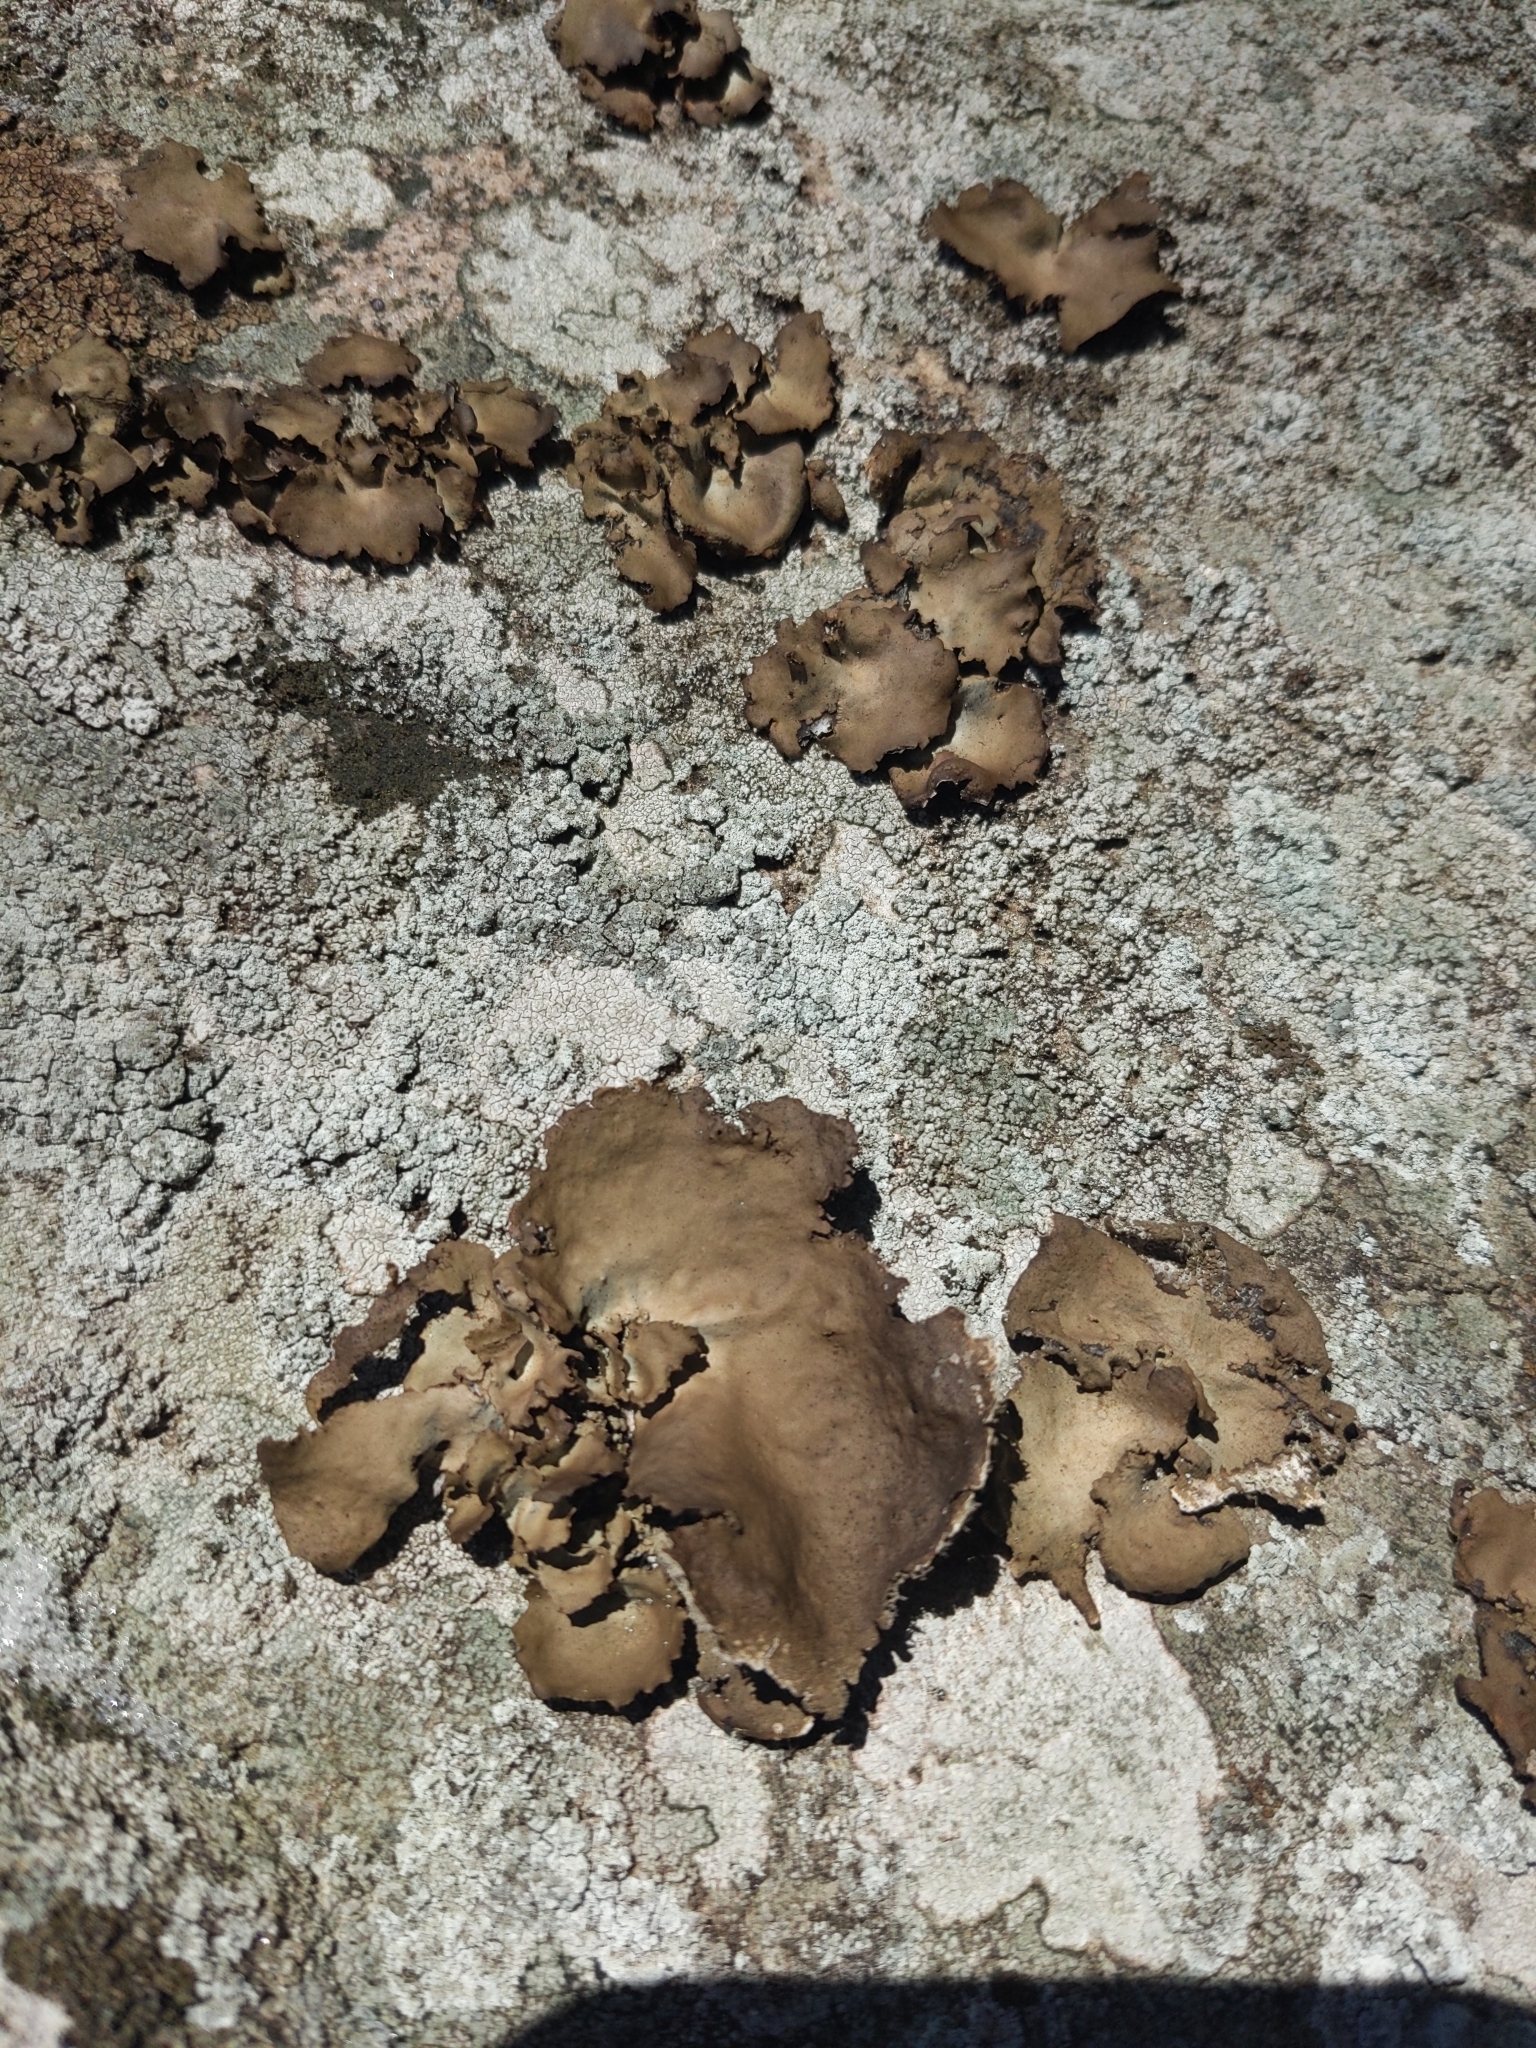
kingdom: Fungi
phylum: Ascomycota
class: Lecanoromycetes
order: Umbilicariales
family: Umbilicariaceae
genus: Umbilicaria
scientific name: Umbilicaria mammulata
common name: Smooth rock tripe
